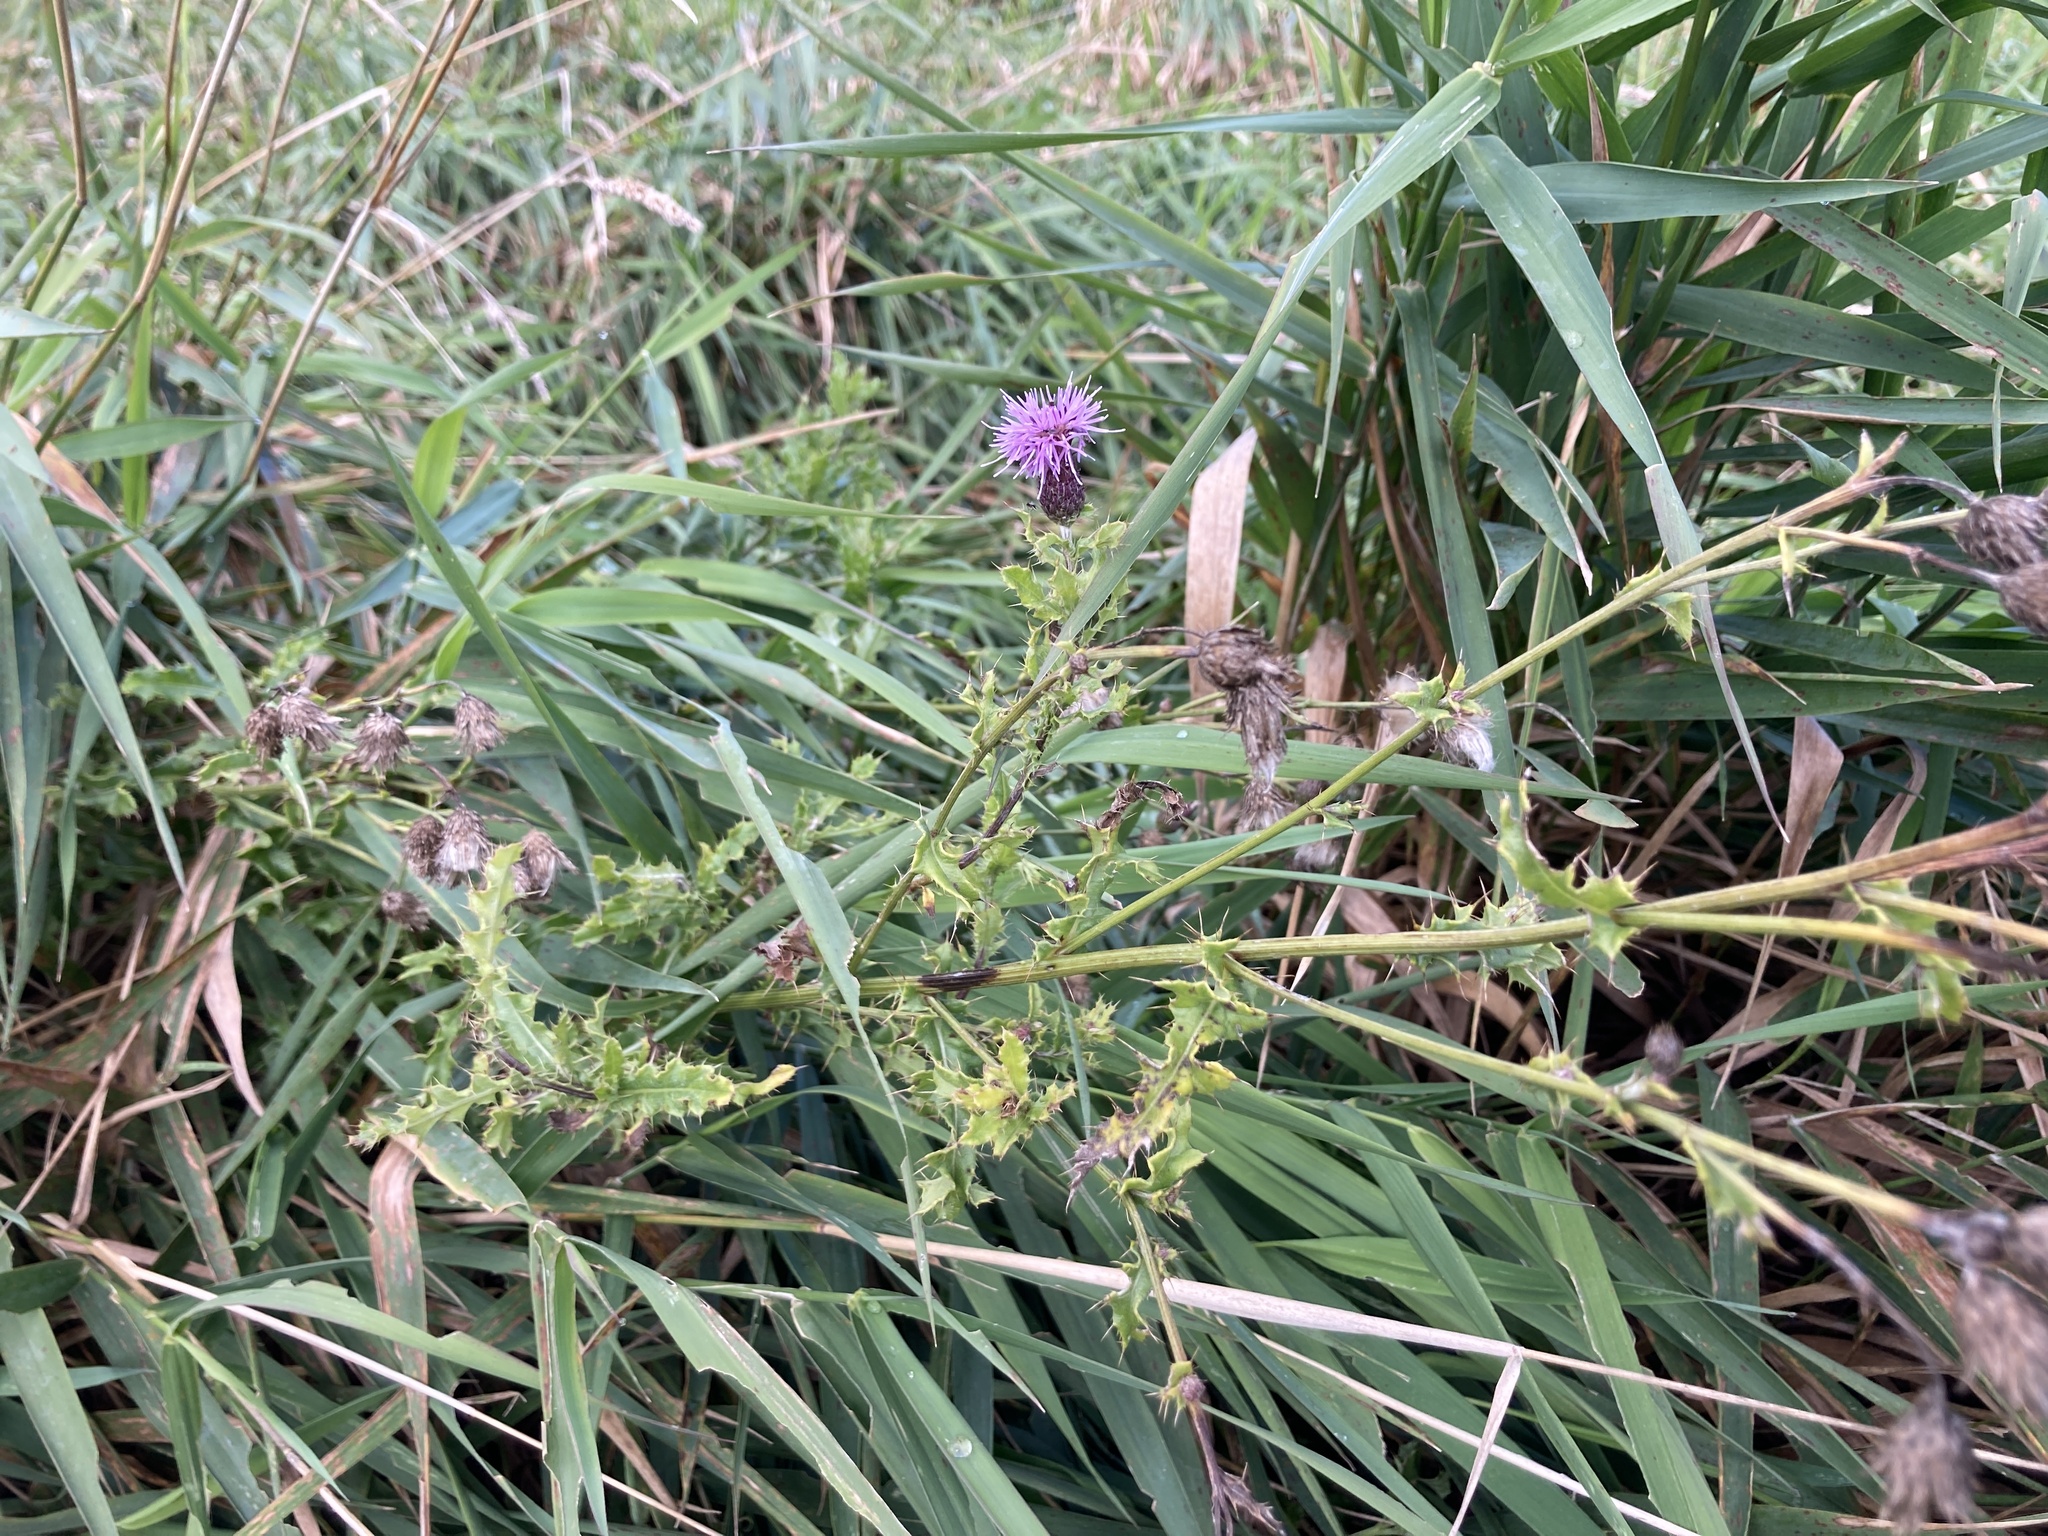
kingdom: Plantae
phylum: Tracheophyta
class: Magnoliopsida
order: Asterales
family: Asteraceae
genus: Cirsium
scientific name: Cirsium arvense
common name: Creeping thistle
